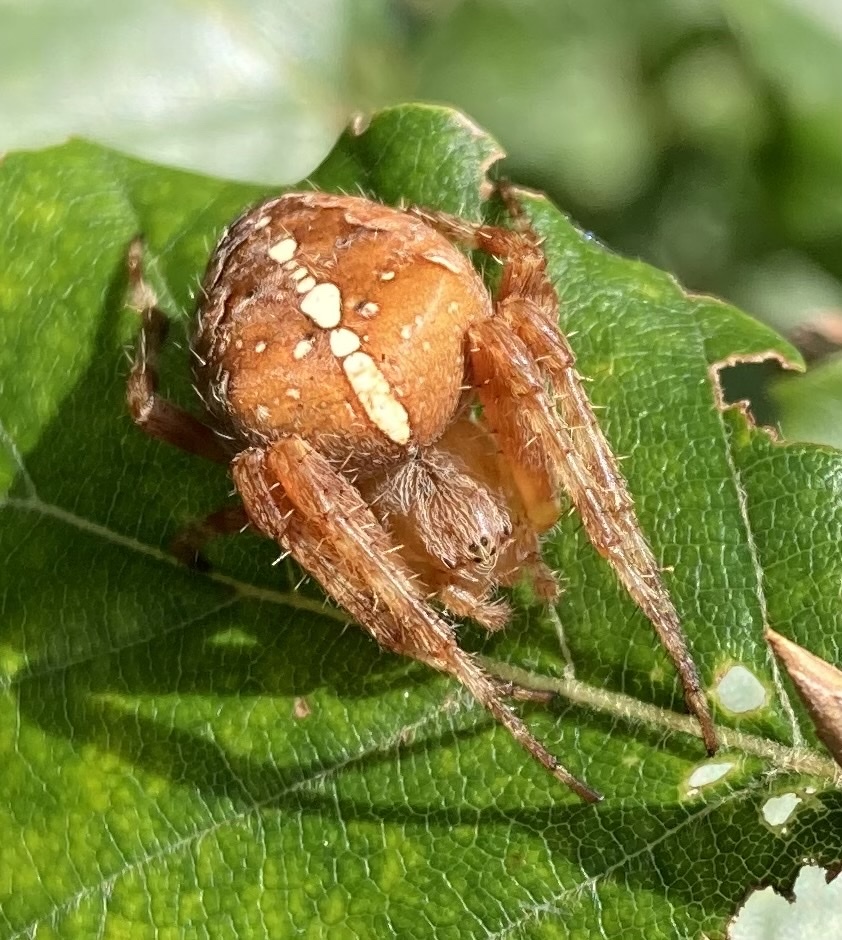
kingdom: Animalia
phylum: Arthropoda
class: Arachnida
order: Araneae
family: Araneidae
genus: Araneus
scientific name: Araneus diadematus
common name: Cross orbweaver
